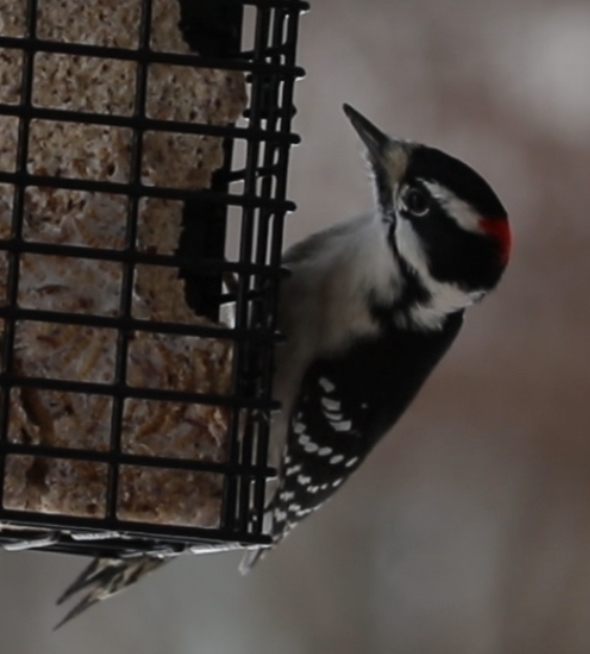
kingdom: Animalia
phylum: Chordata
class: Aves
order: Piciformes
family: Picidae
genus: Dryobates
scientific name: Dryobates pubescens
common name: Downy woodpecker
